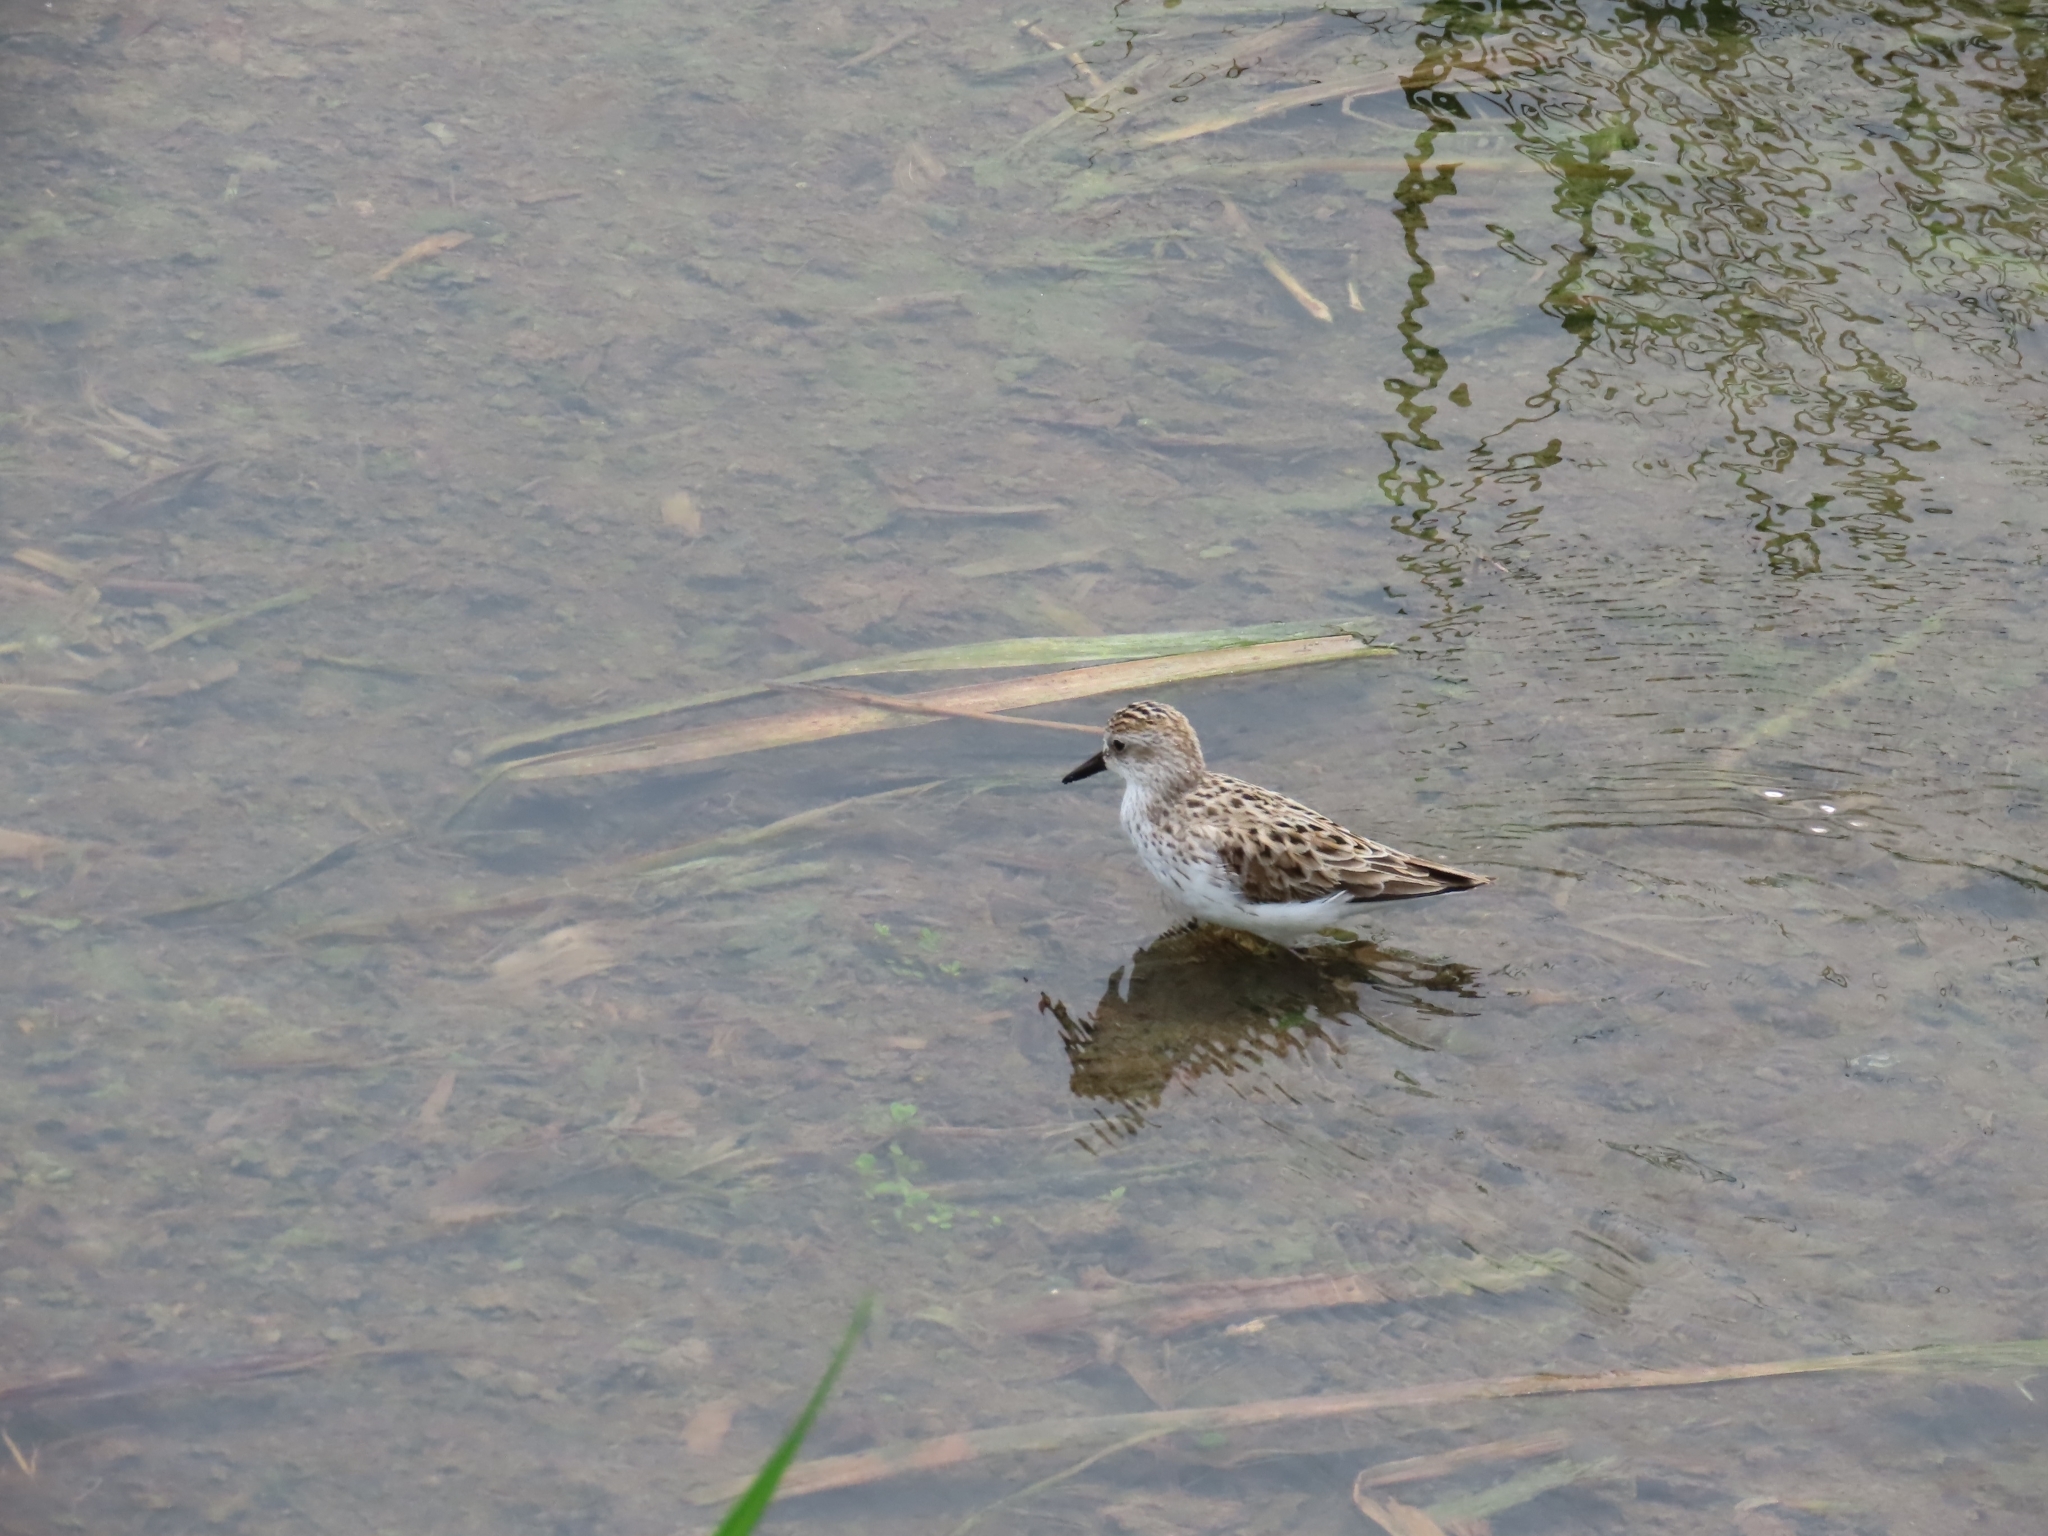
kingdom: Animalia
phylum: Chordata
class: Aves
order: Charadriiformes
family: Scolopacidae
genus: Calidris
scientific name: Calidris pusilla
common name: Semipalmated sandpiper
